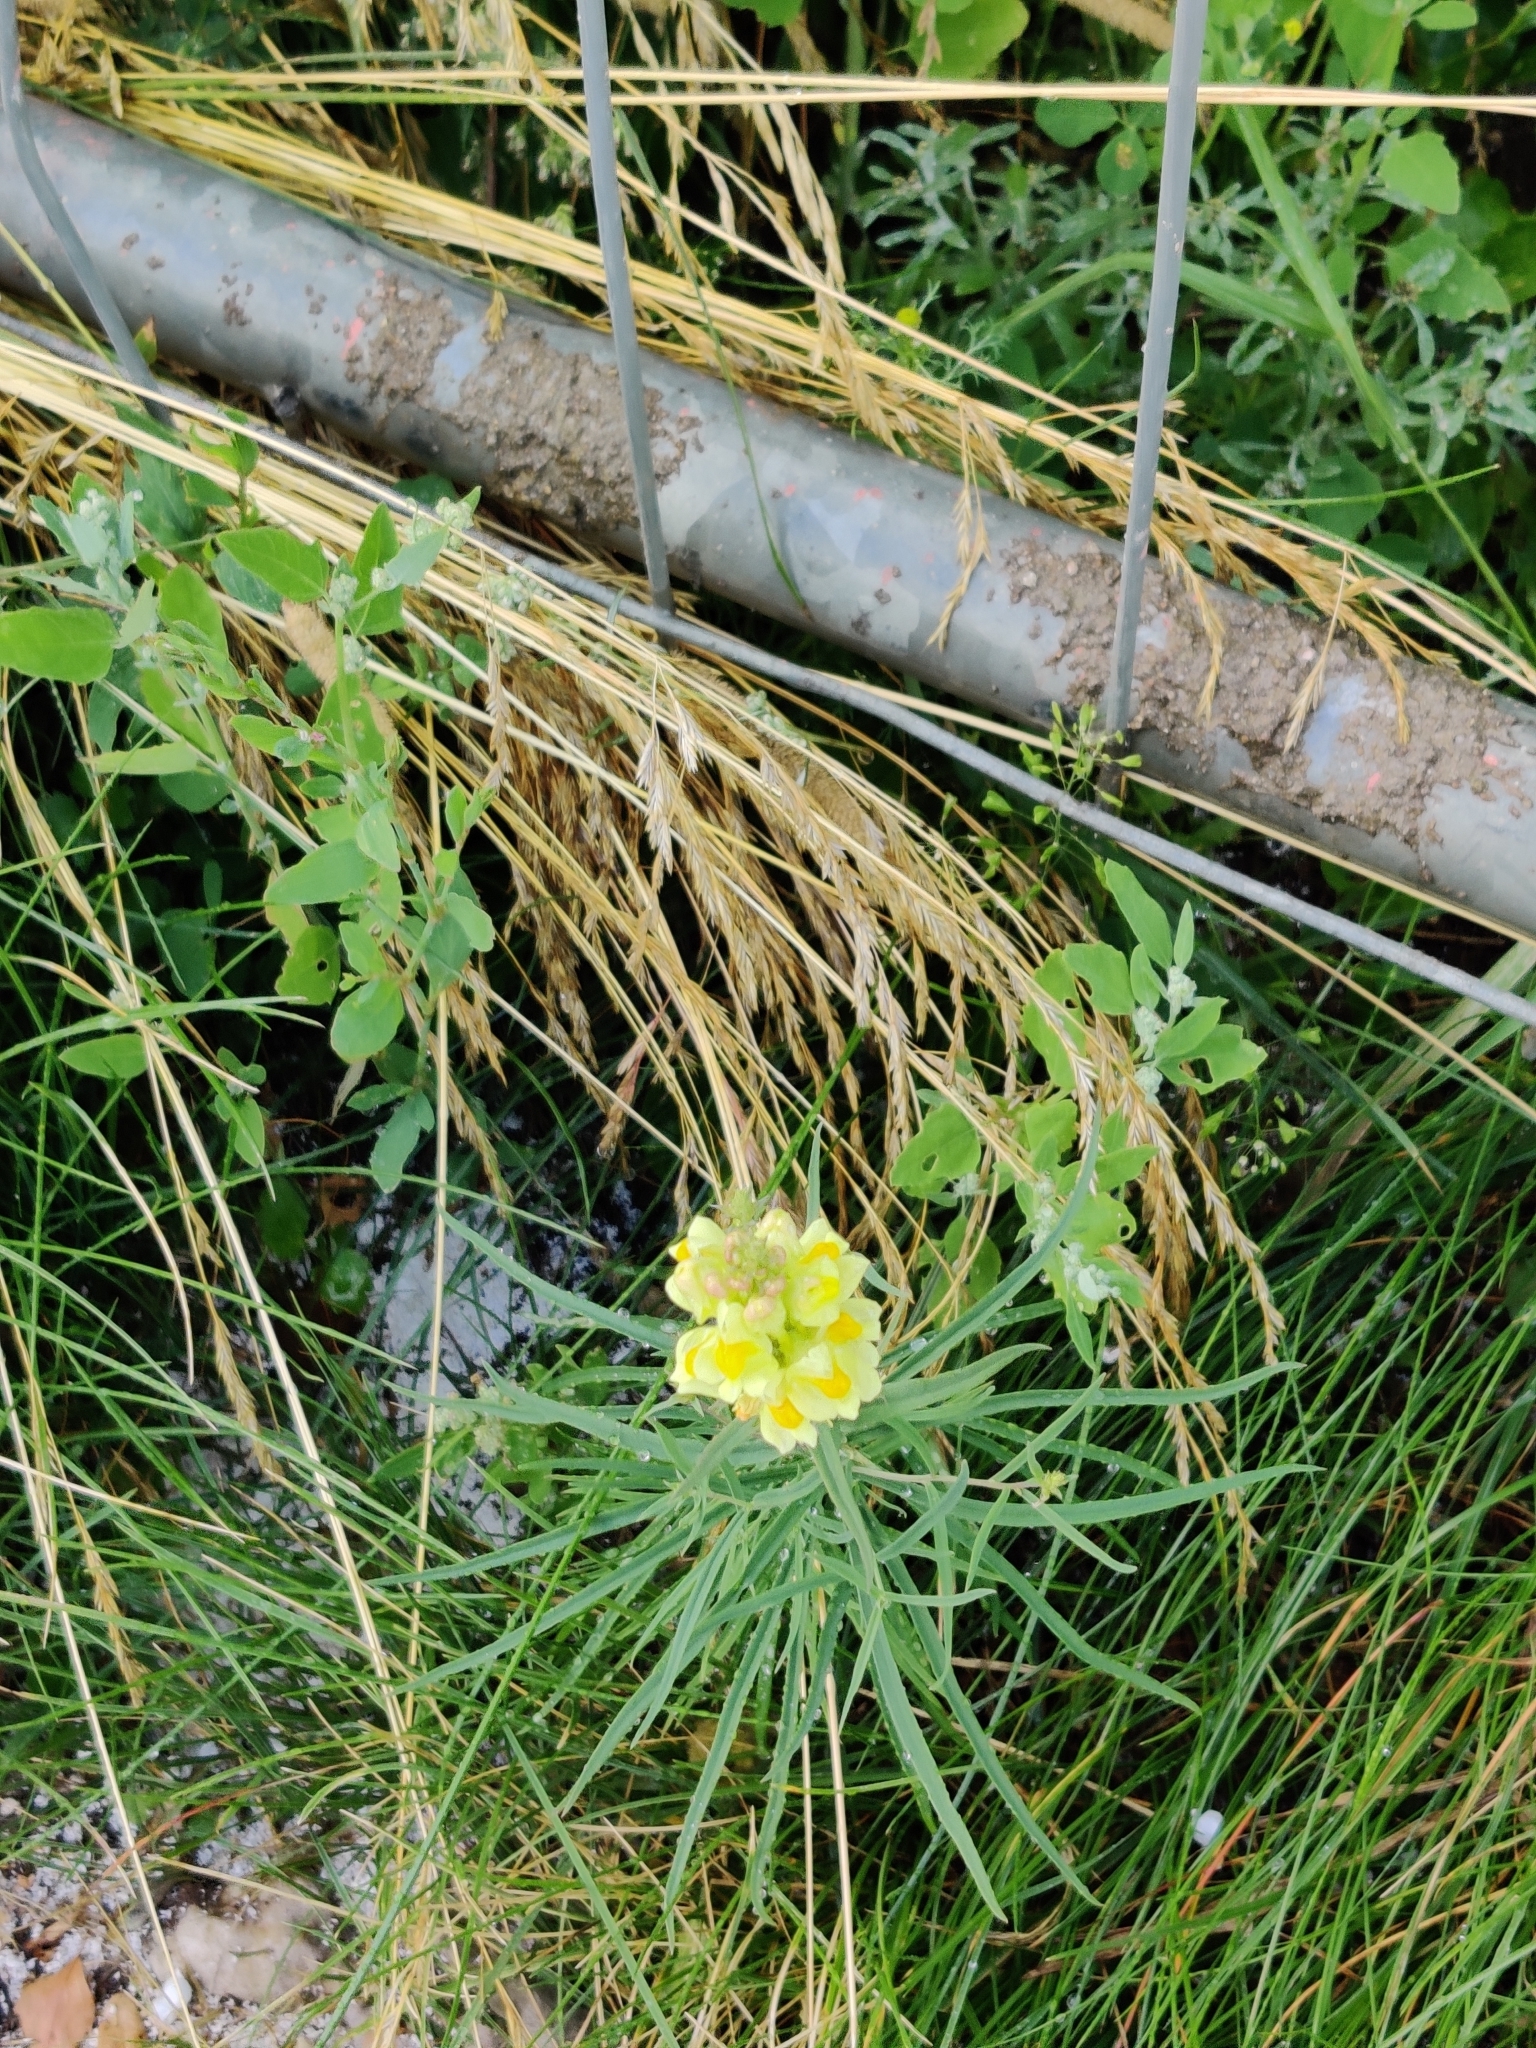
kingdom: Plantae
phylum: Tracheophyta
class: Magnoliopsida
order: Lamiales
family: Plantaginaceae
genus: Linaria
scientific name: Linaria vulgaris
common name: Butter and eggs
